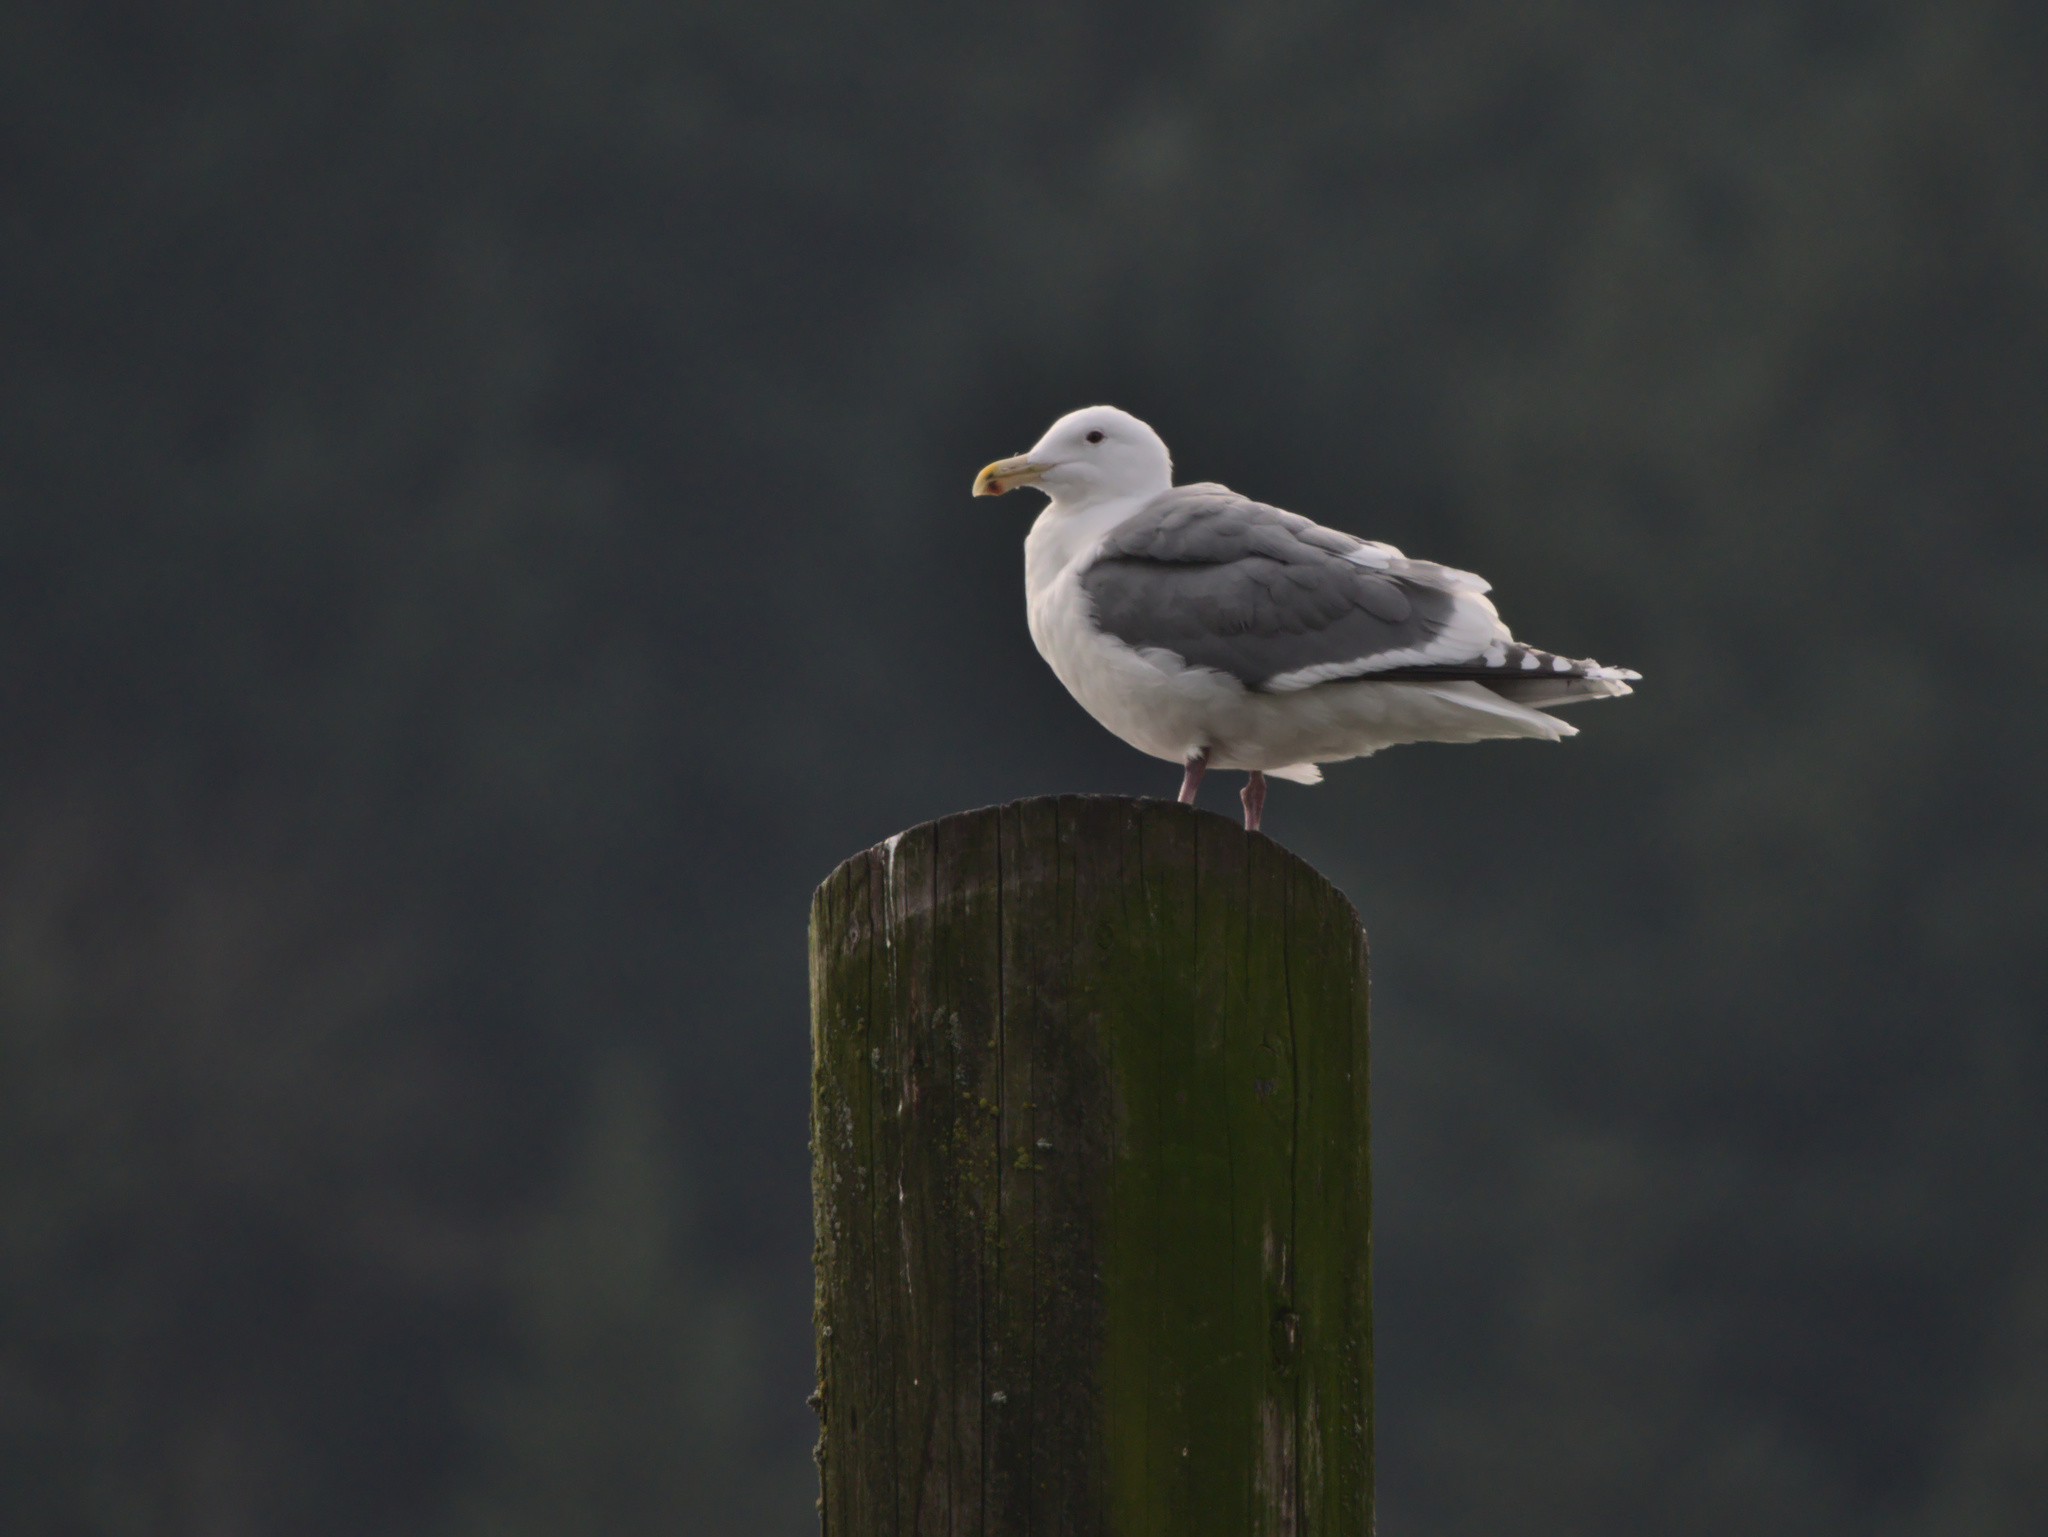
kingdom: Animalia
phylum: Chordata
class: Aves
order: Charadriiformes
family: Laridae
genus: Larus
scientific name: Larus
